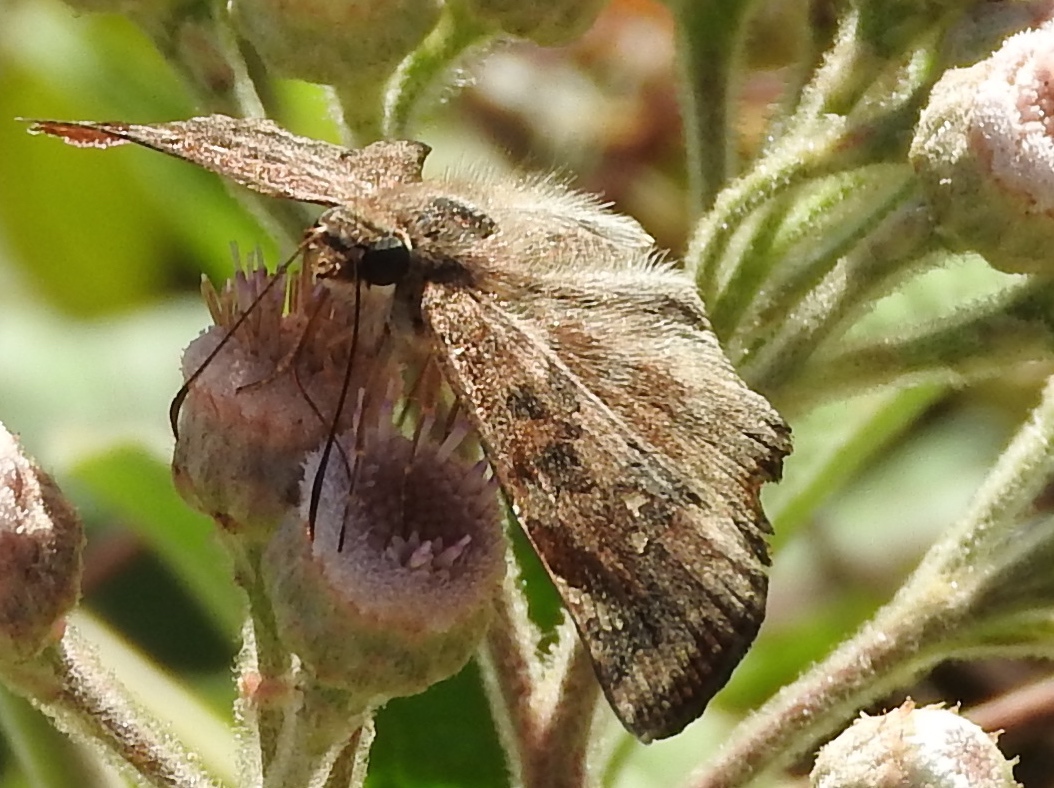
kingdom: Animalia
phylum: Arthropoda
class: Insecta
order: Lepidoptera
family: Hesperiidae
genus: Antigonus
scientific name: Antigonus erosus
